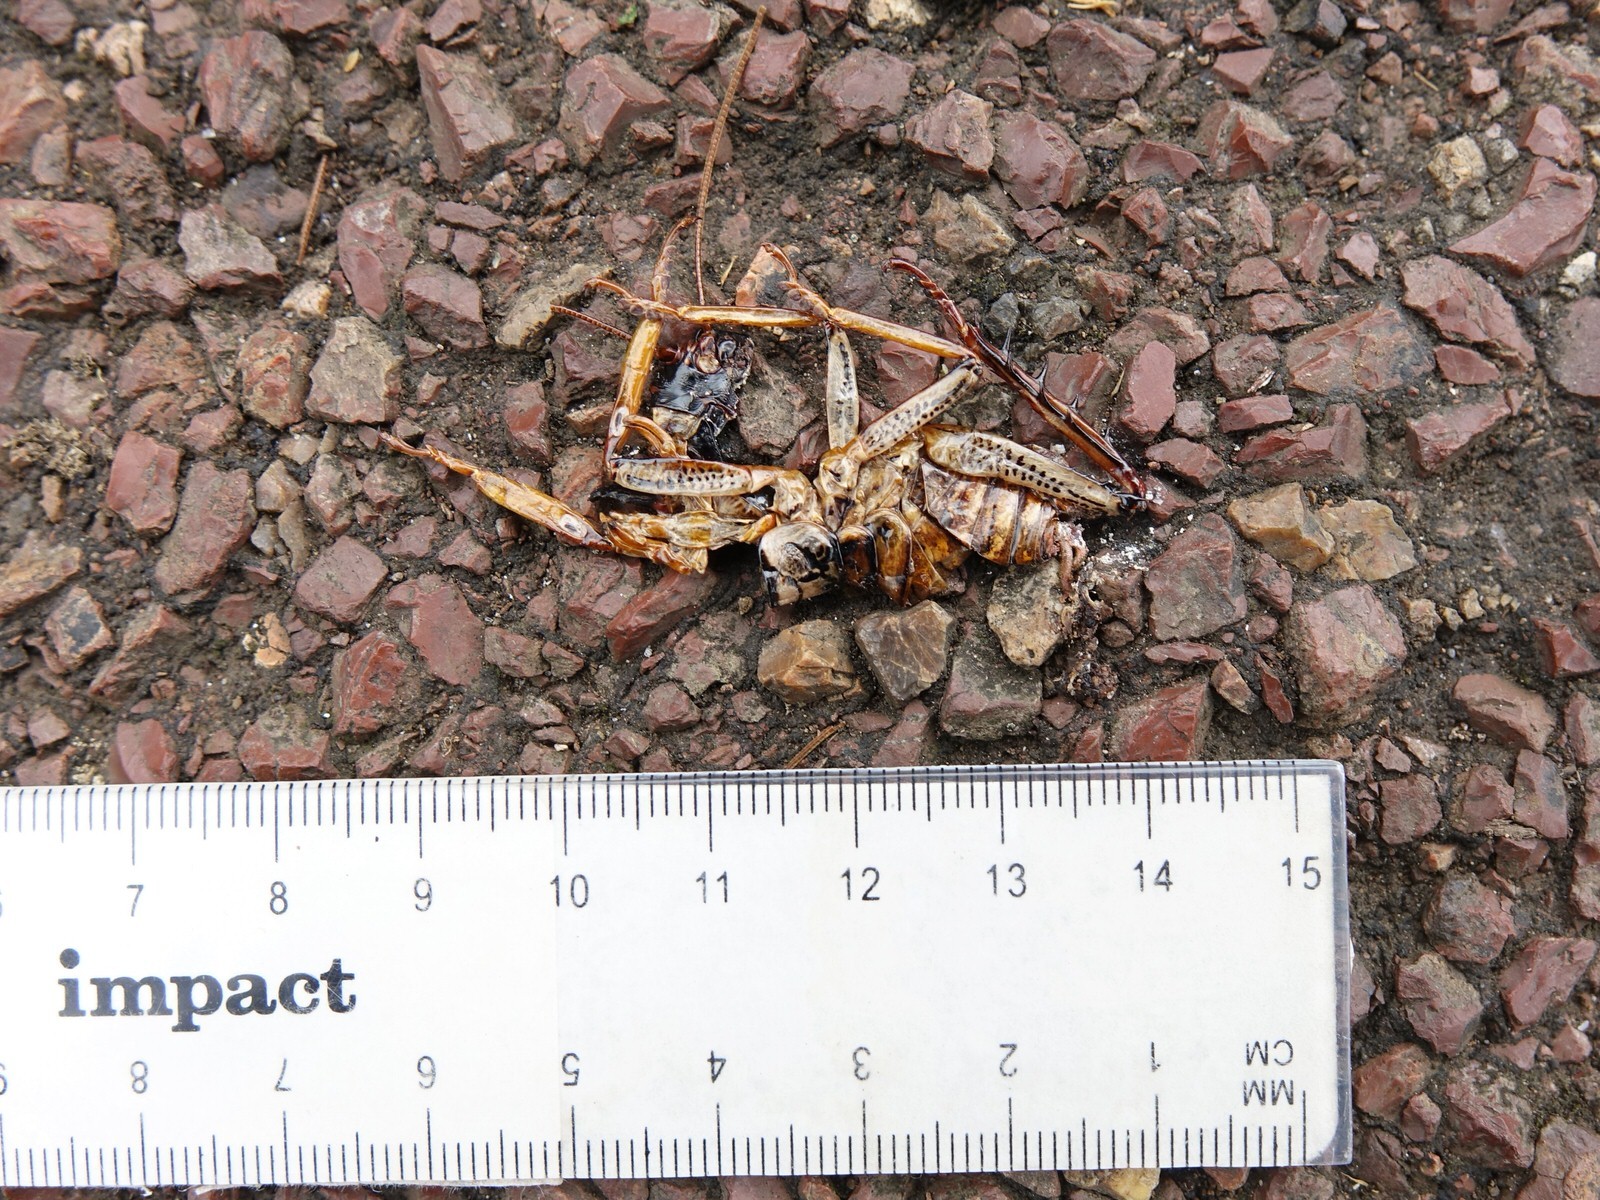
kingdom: Animalia
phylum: Arthropoda
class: Insecta
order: Orthoptera
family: Anostostomatidae
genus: Hemideina
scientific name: Hemideina thoracica
